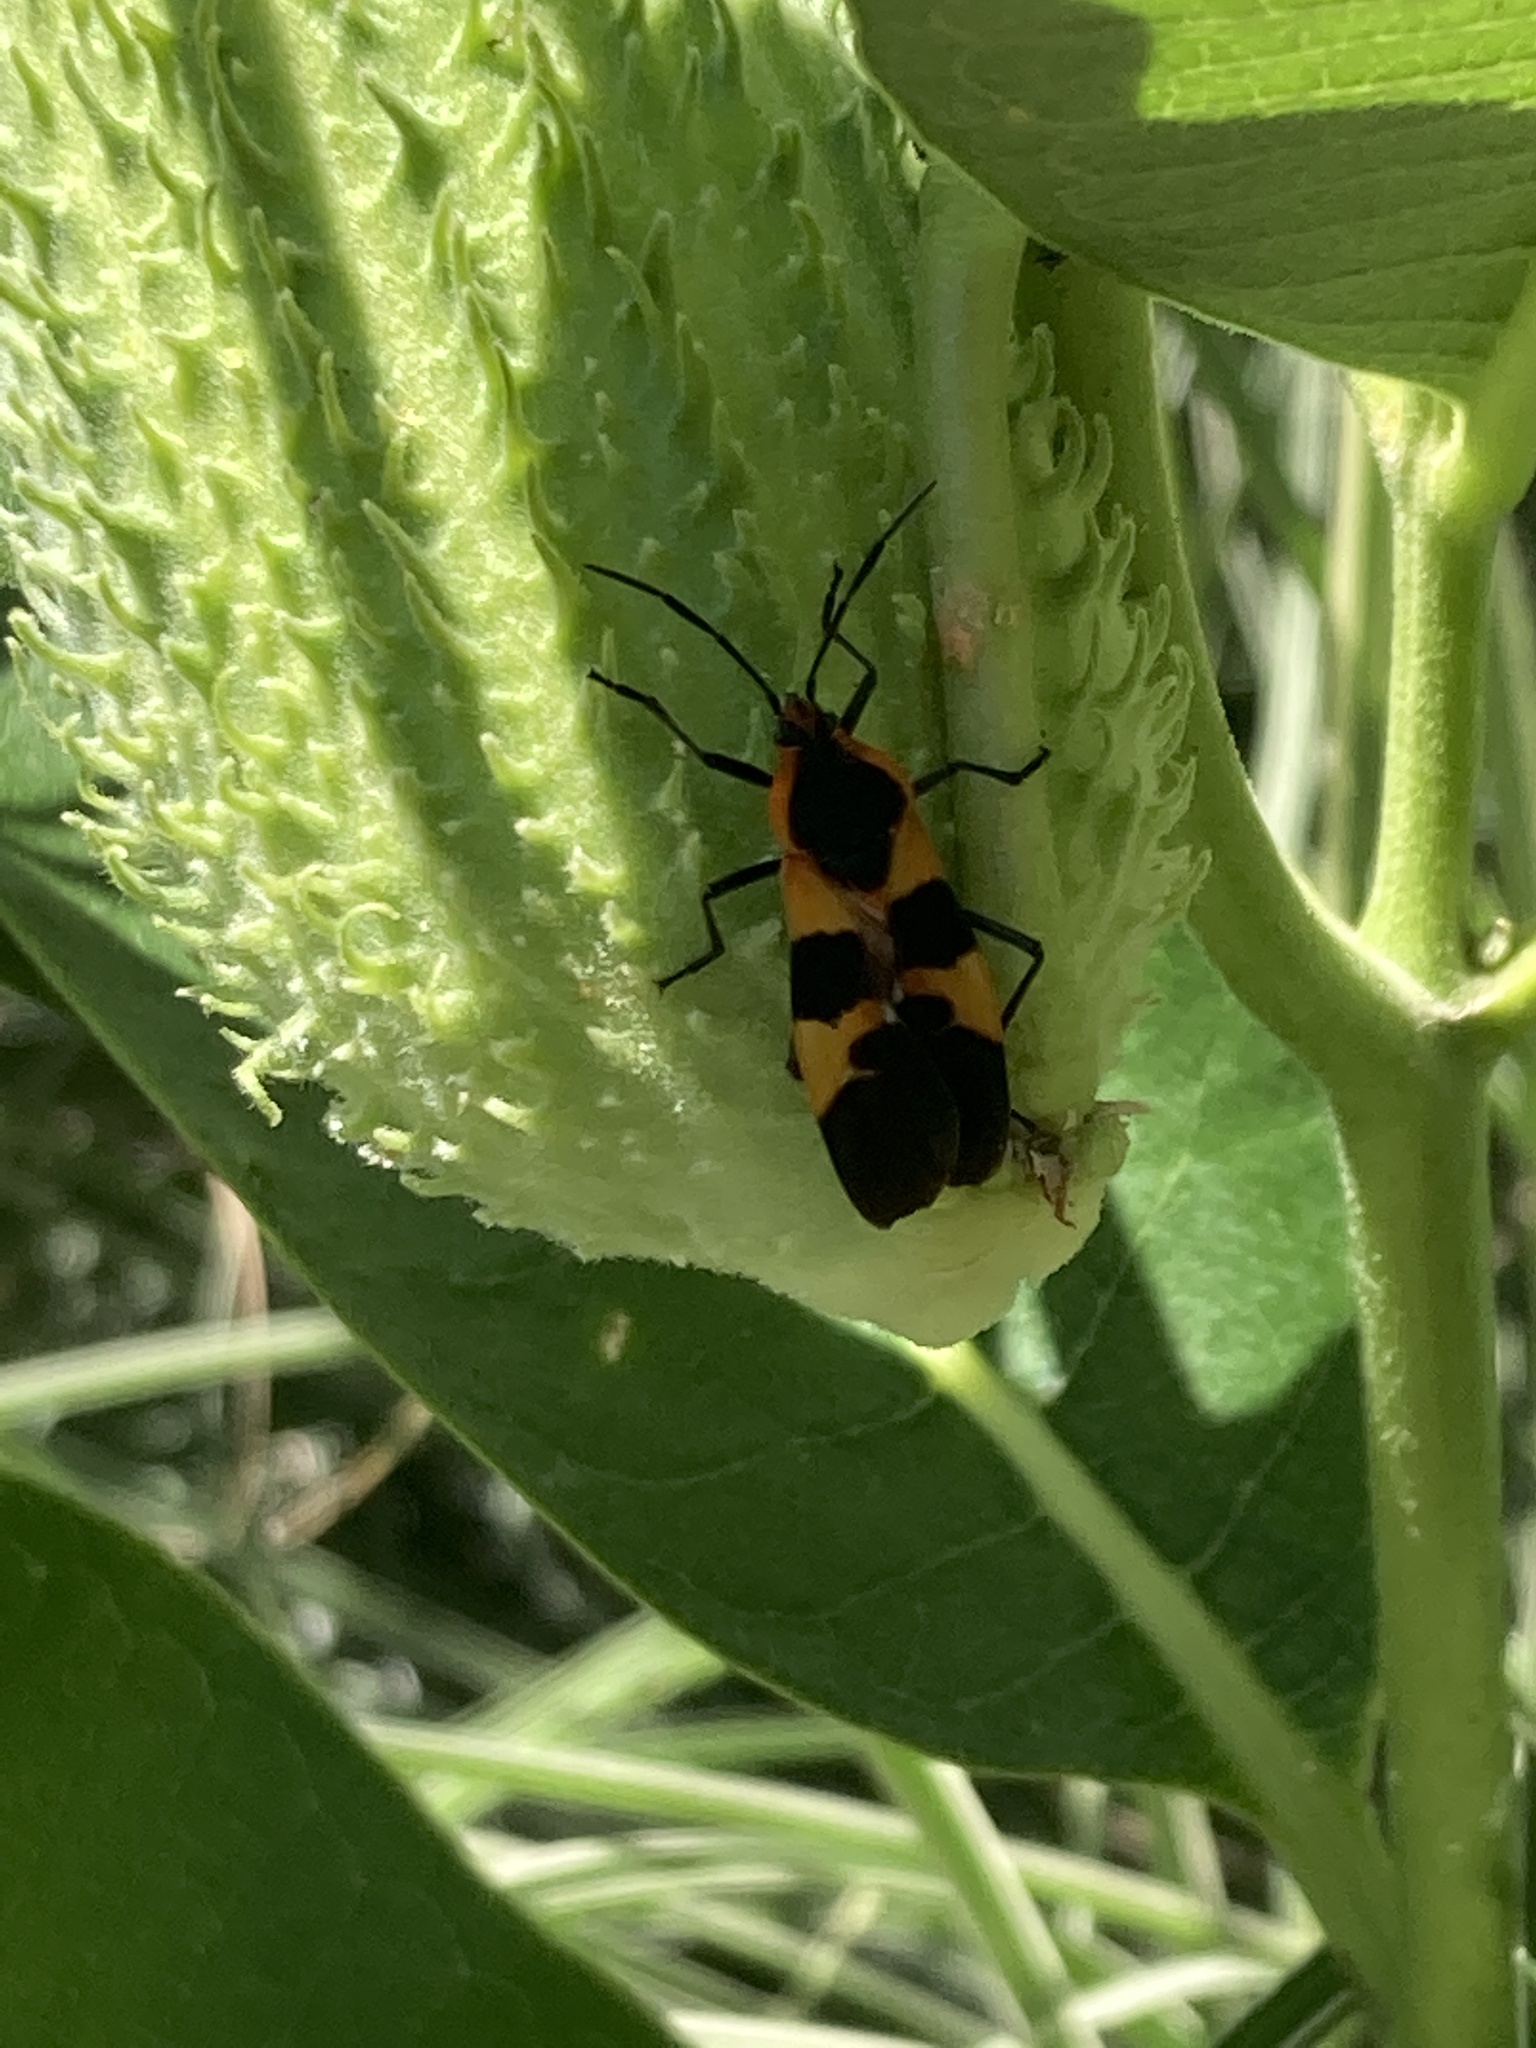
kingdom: Animalia
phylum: Arthropoda
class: Insecta
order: Hemiptera
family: Lygaeidae
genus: Oncopeltus
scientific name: Oncopeltus fasciatus
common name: Large milkweed bug
